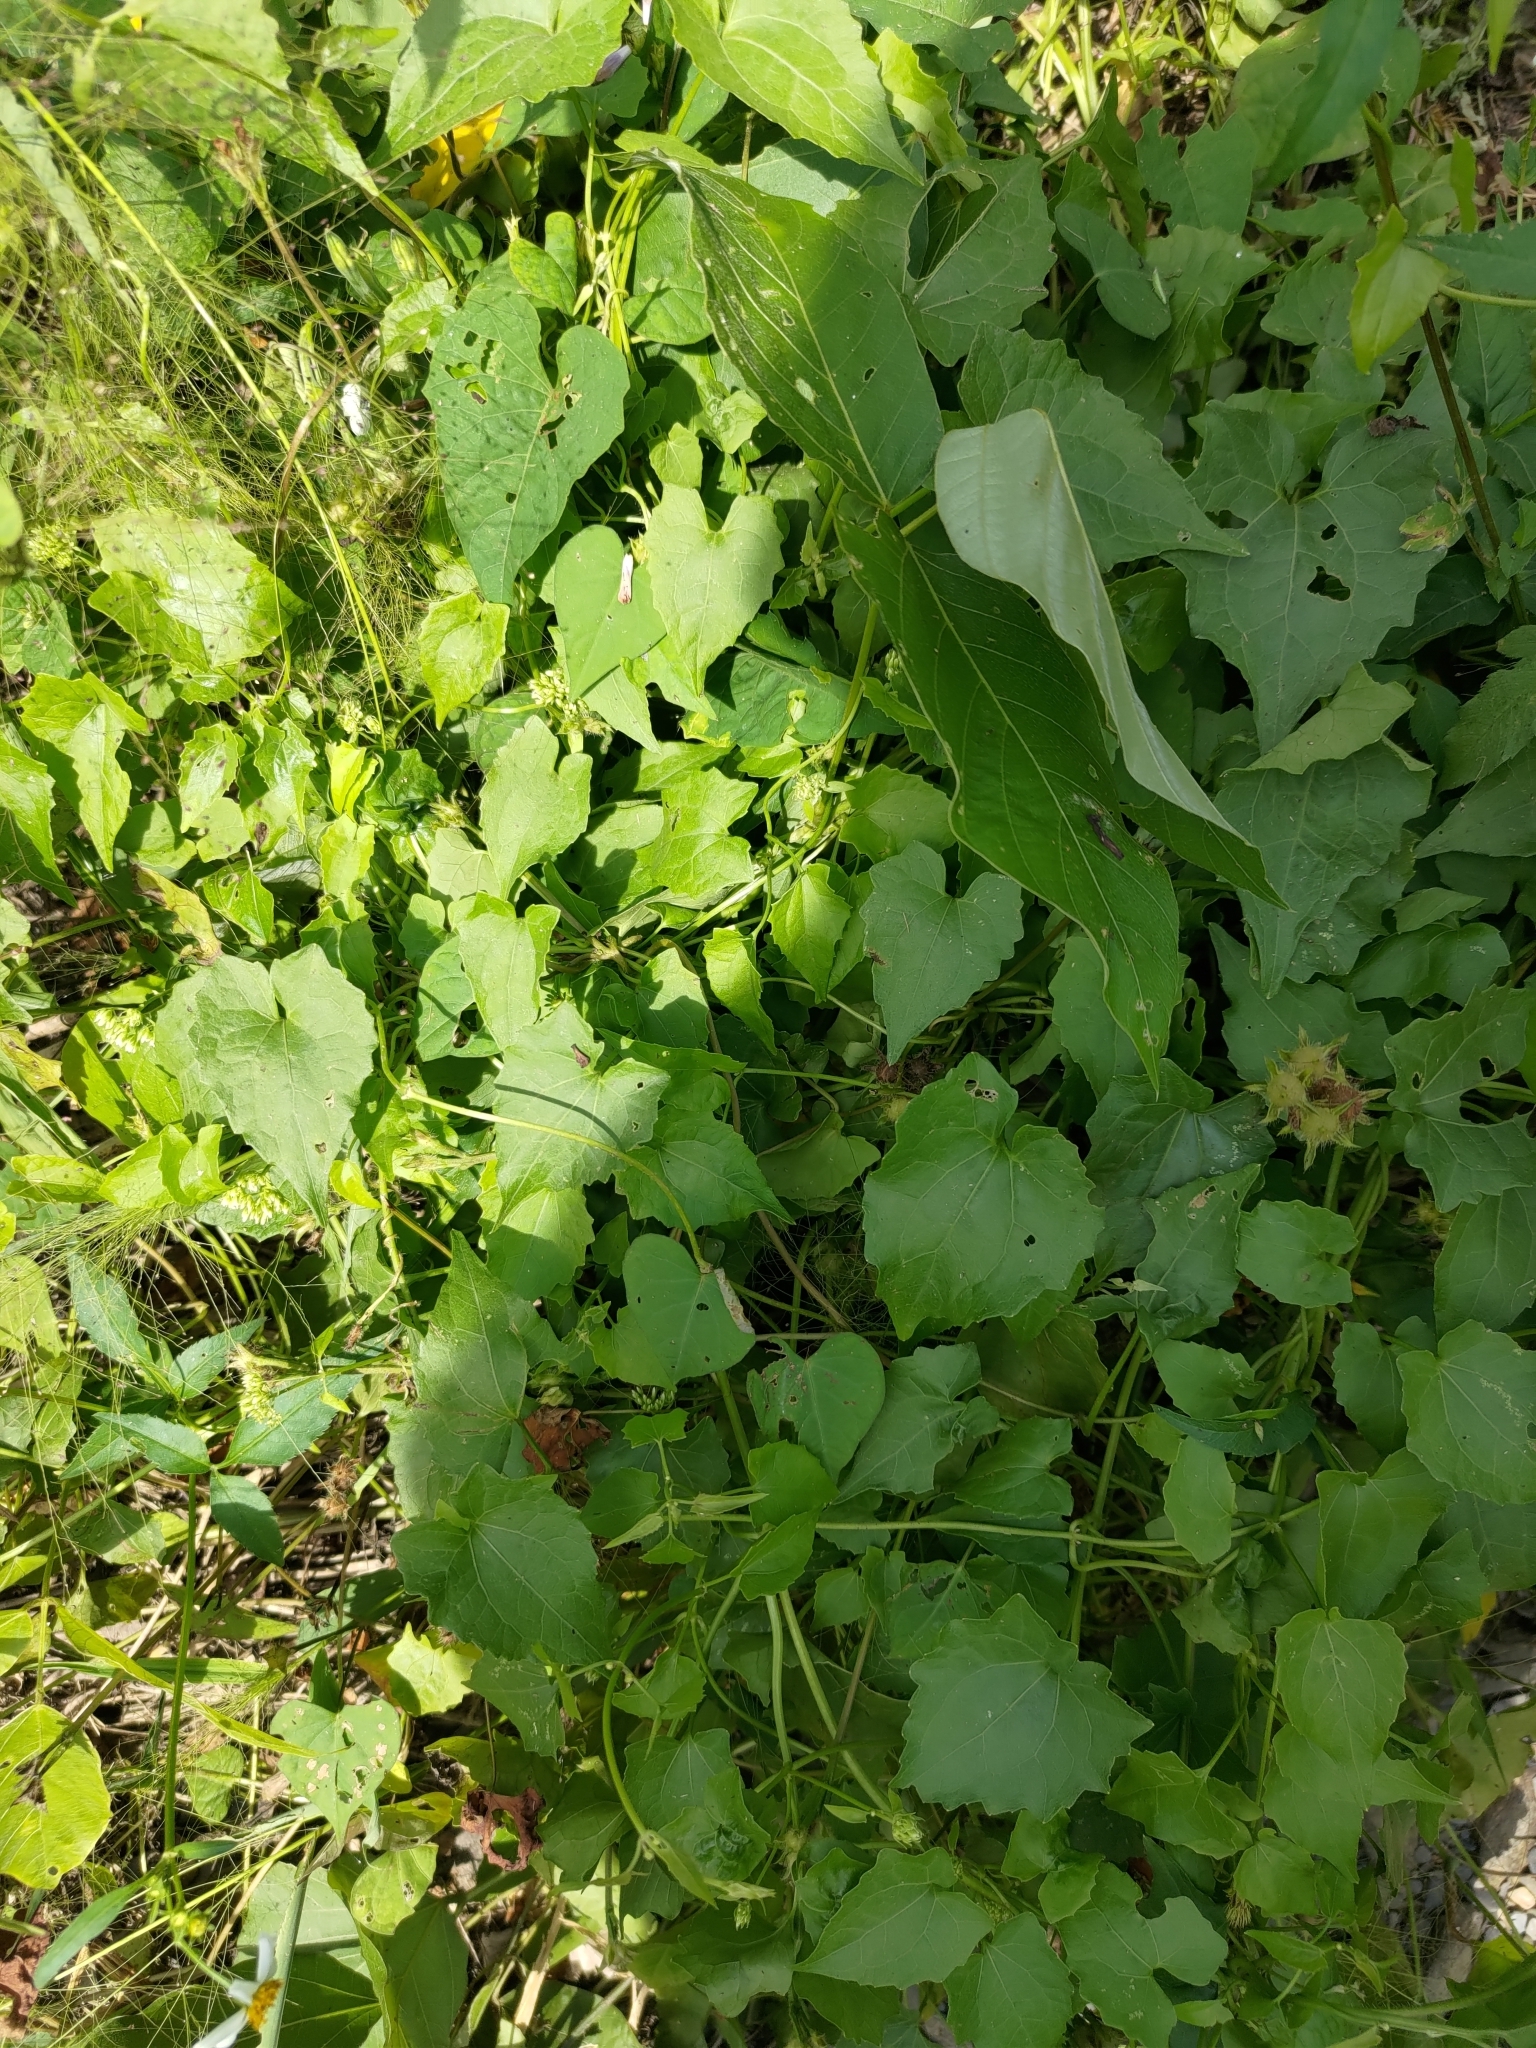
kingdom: Plantae
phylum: Tracheophyta
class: Magnoliopsida
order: Asterales
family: Asteraceae
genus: Mikania
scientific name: Mikania micrantha
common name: Mile-a-minute
